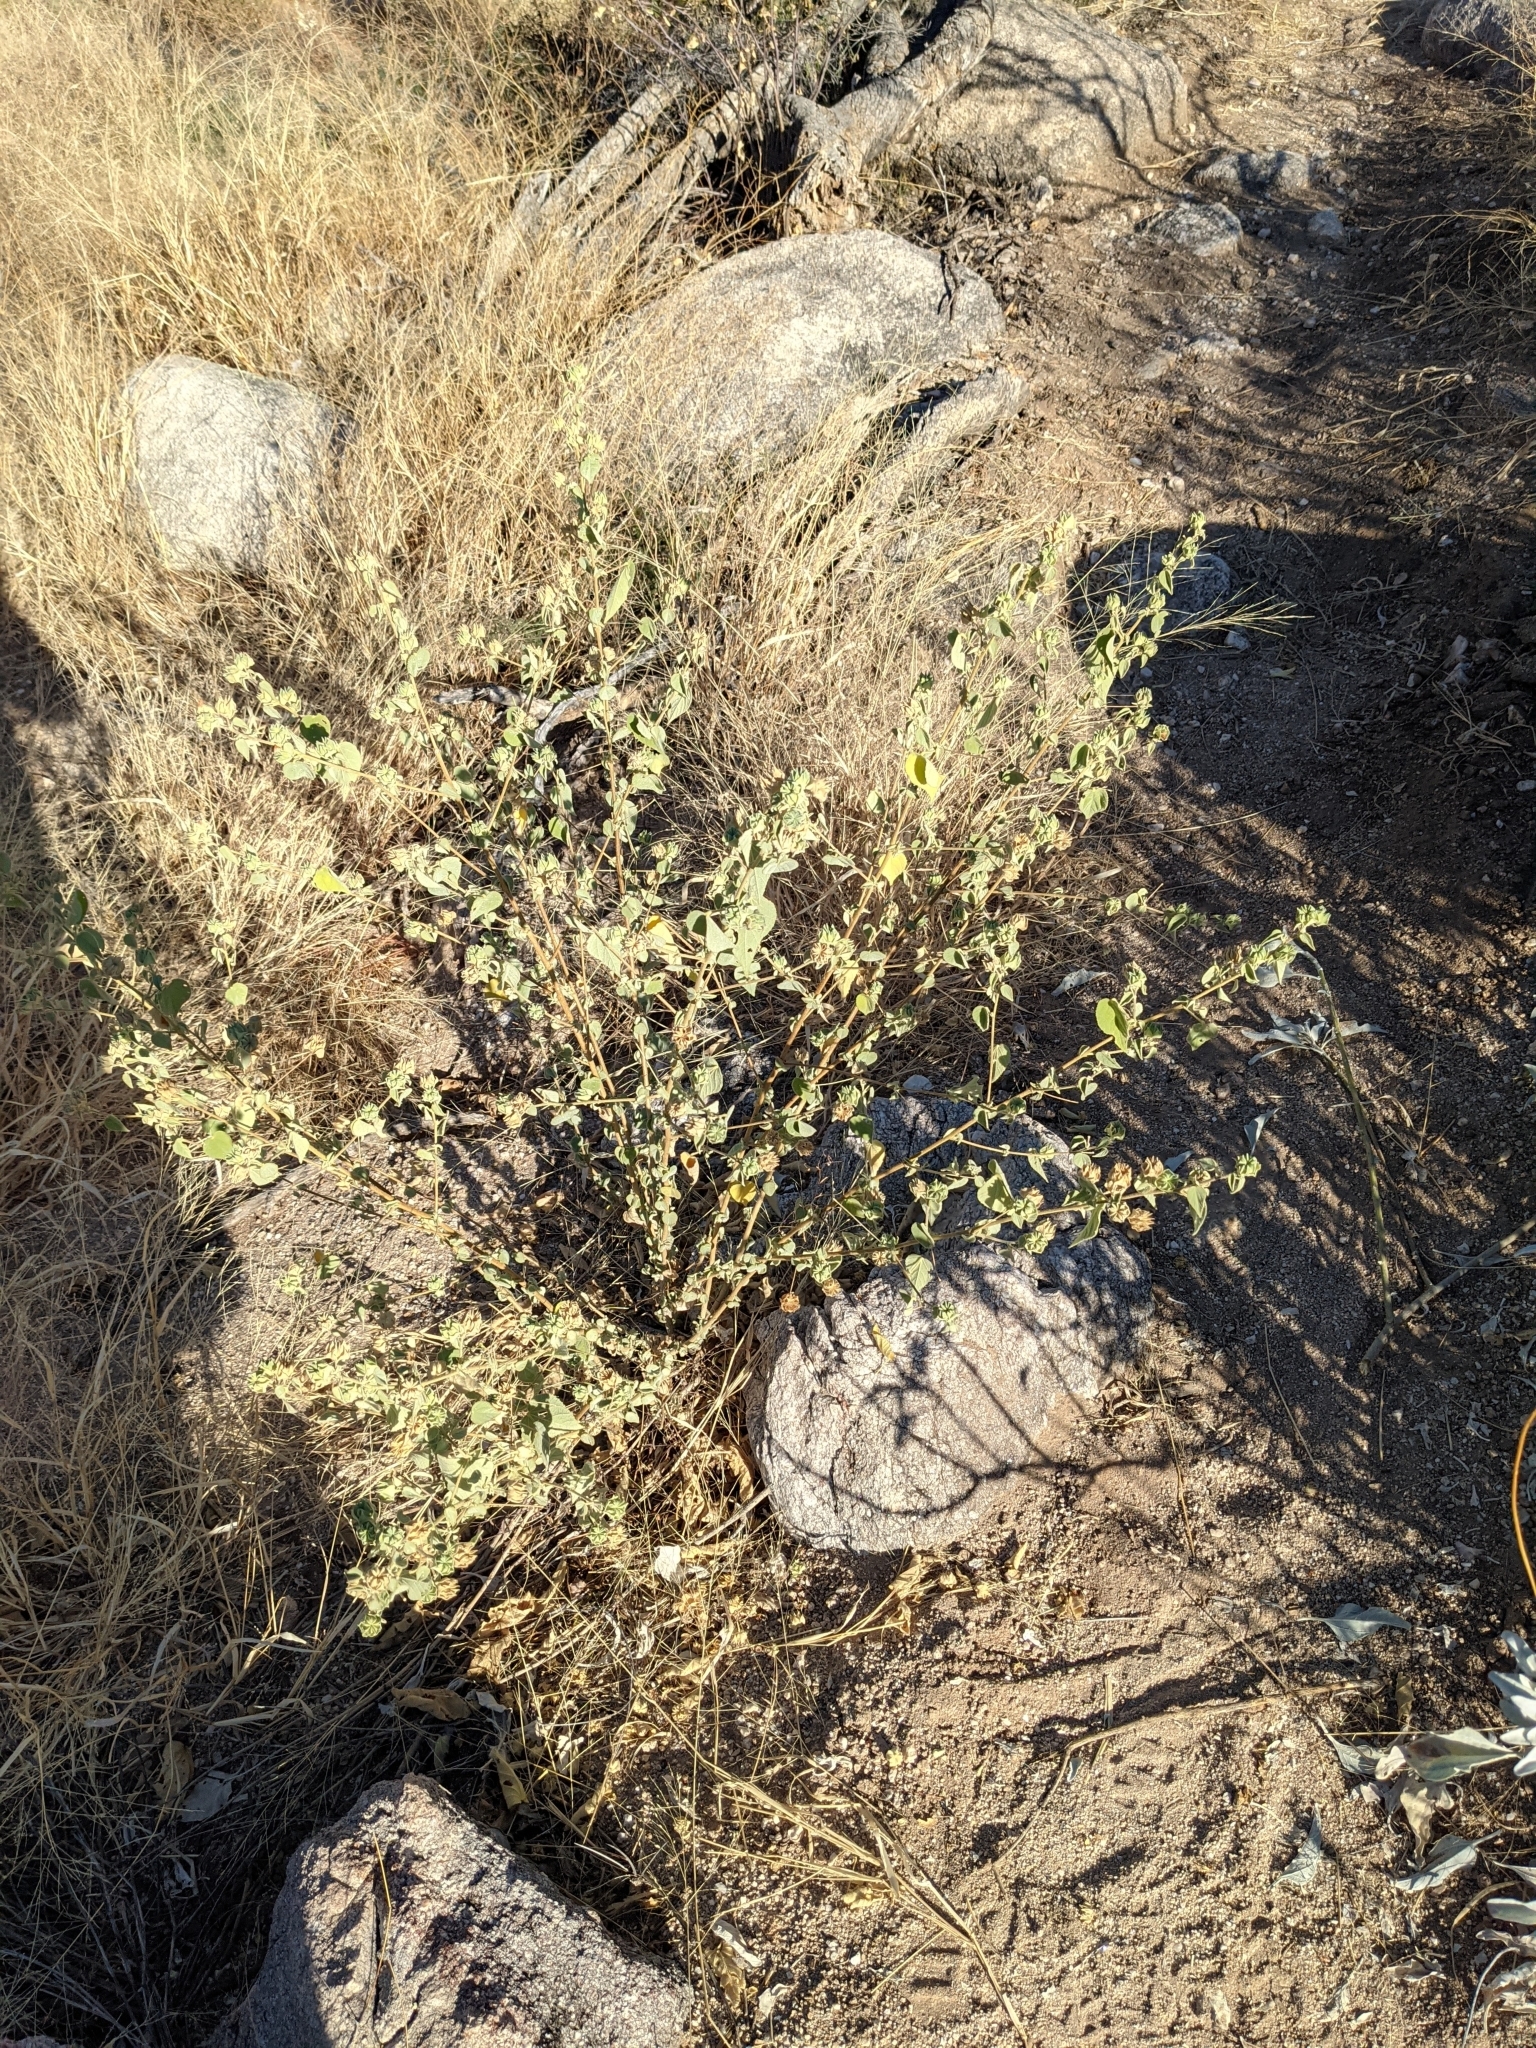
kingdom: Plantae
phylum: Tracheophyta
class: Magnoliopsida
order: Malvales
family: Malvaceae
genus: Abutilon
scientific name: Abutilon abutiloides
